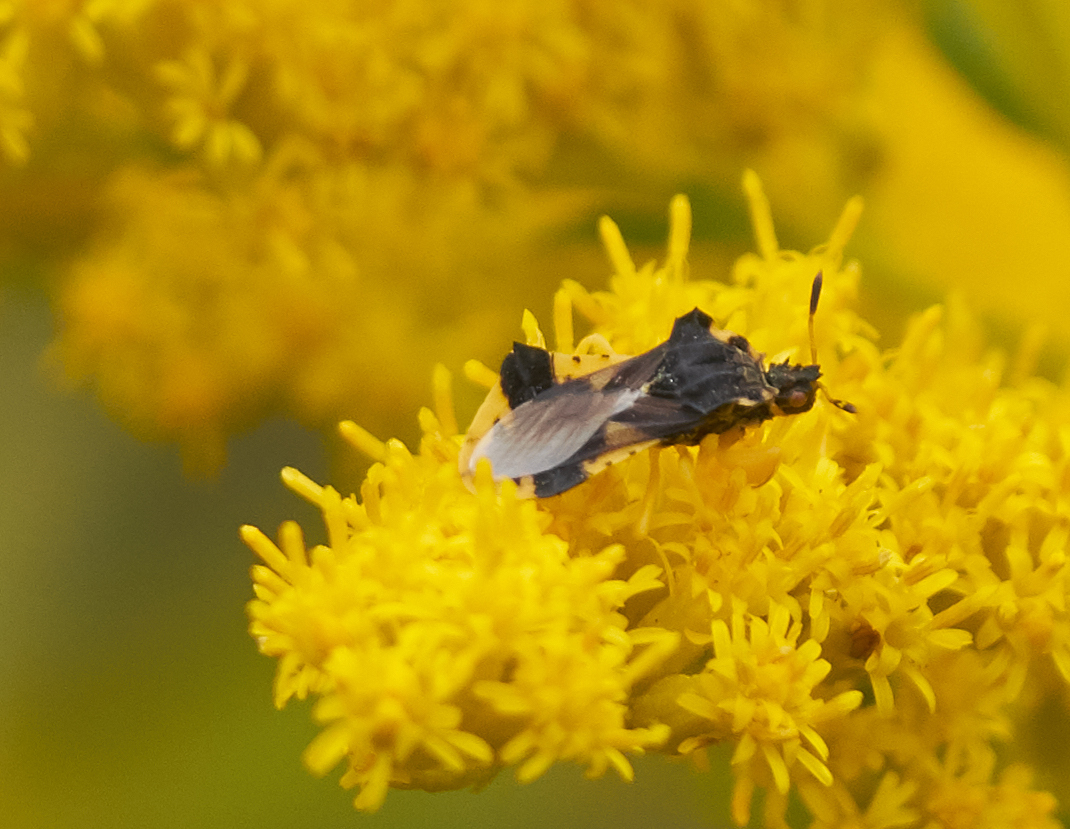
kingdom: Animalia
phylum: Arthropoda
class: Insecta
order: Hemiptera
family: Reduviidae
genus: Phymata
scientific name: Phymata americana
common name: Jagged ambush bug
